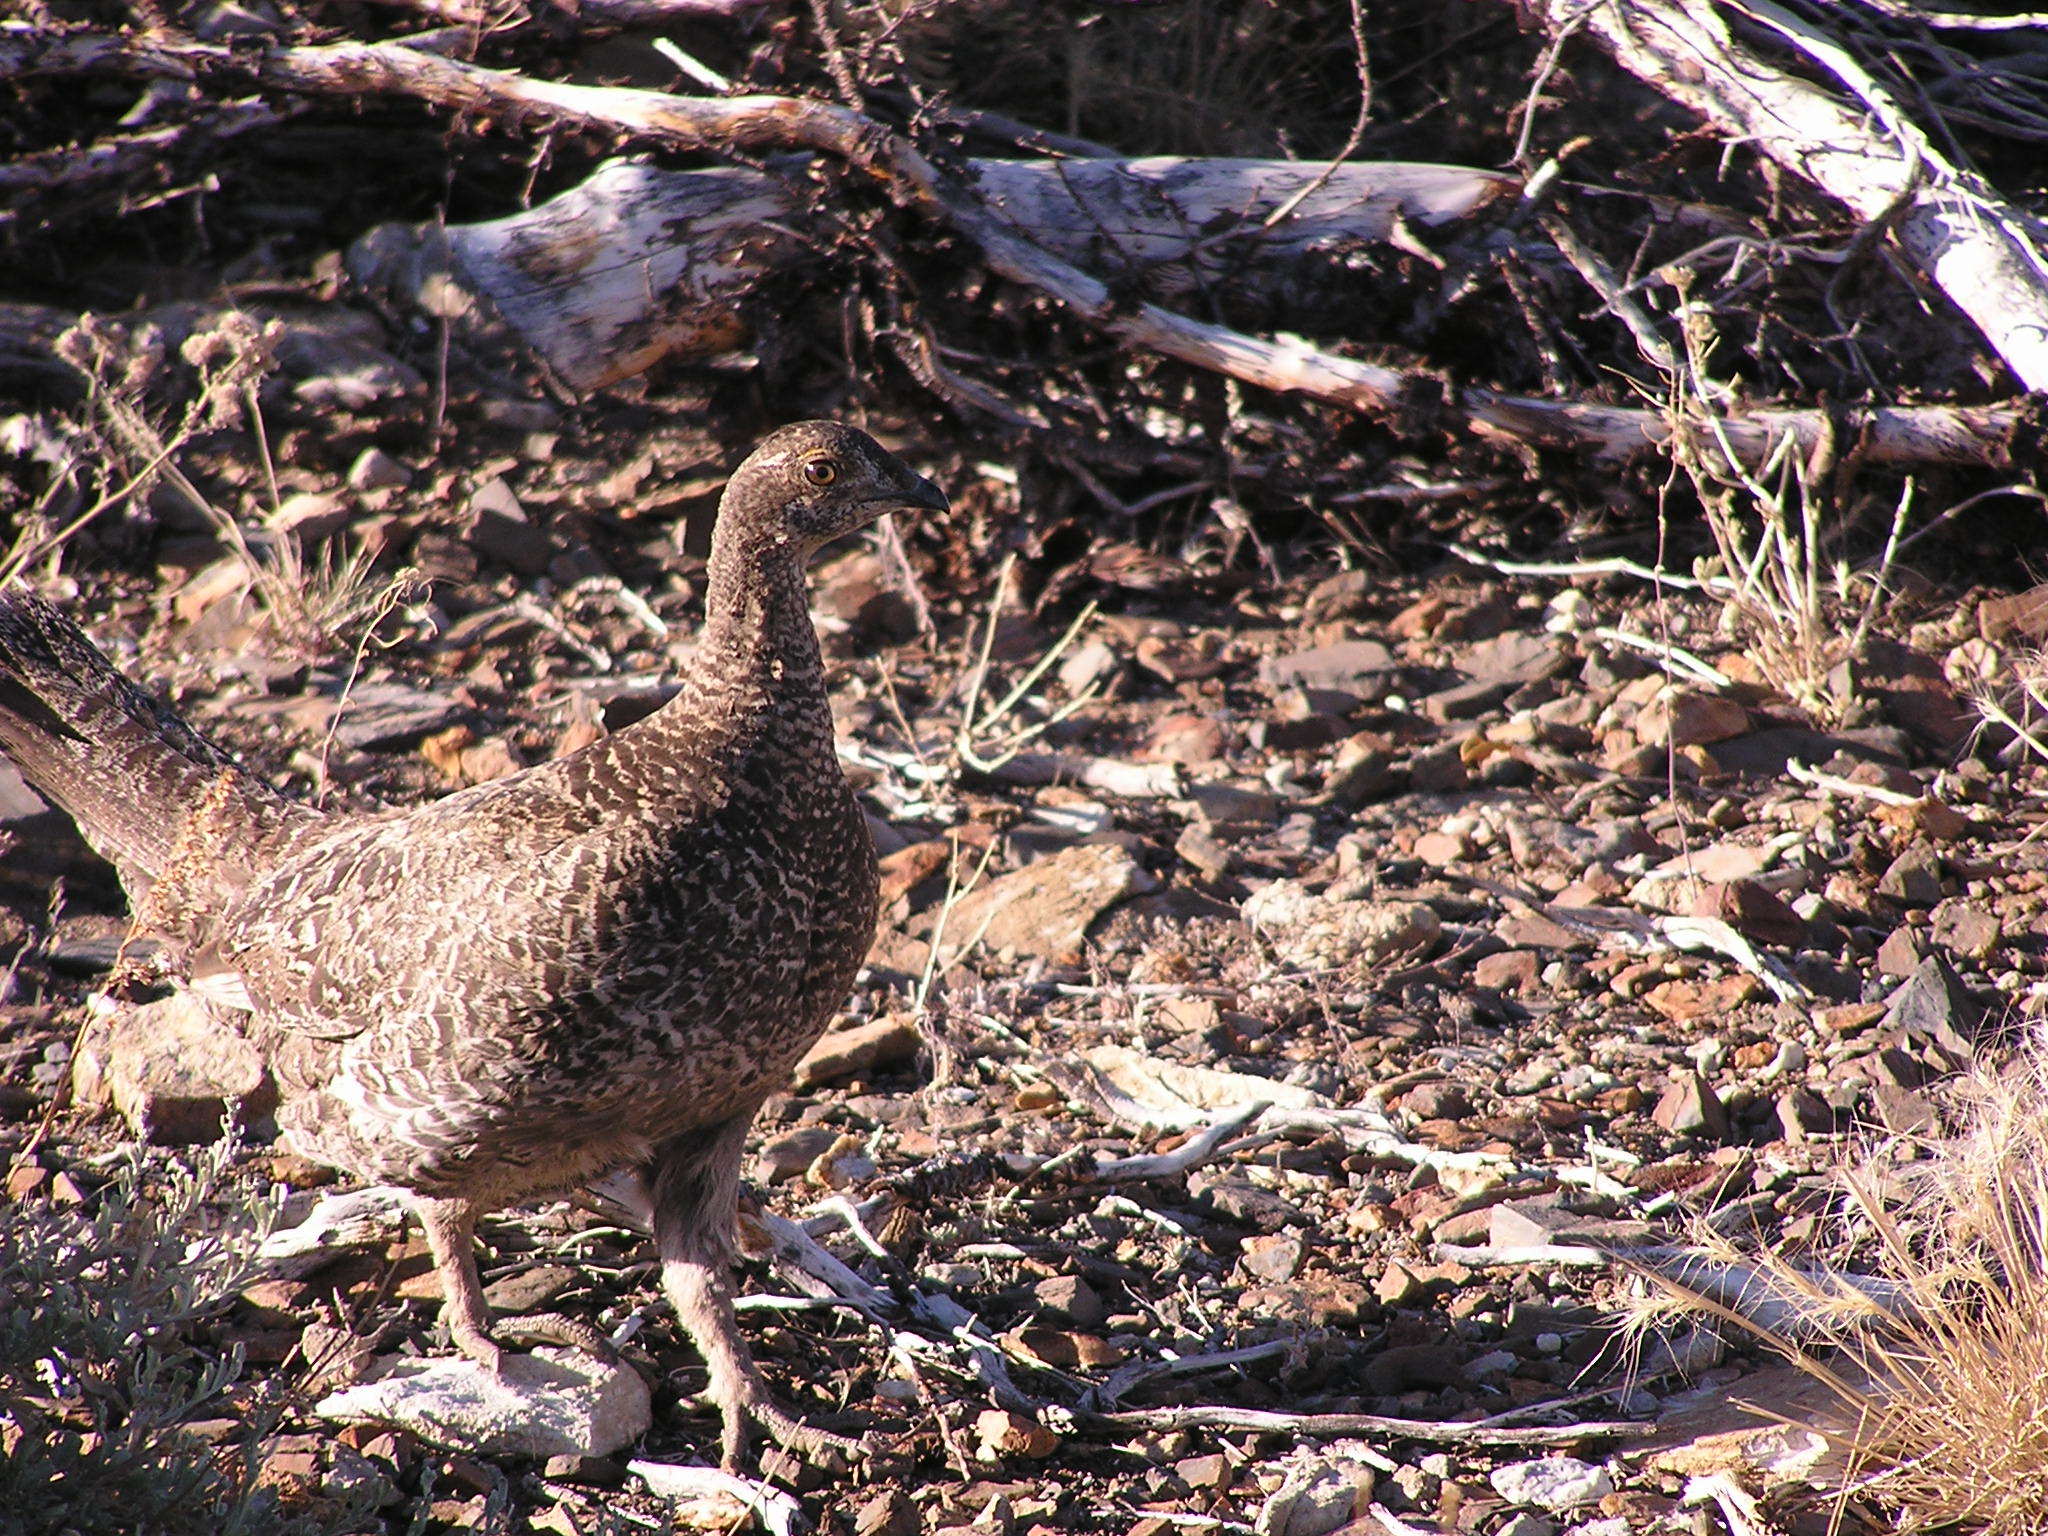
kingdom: Animalia
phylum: Chordata
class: Aves
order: Galliformes
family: Phasianidae
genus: Dendragapus
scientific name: Dendragapus fuliginosus
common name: Sooty grouse
